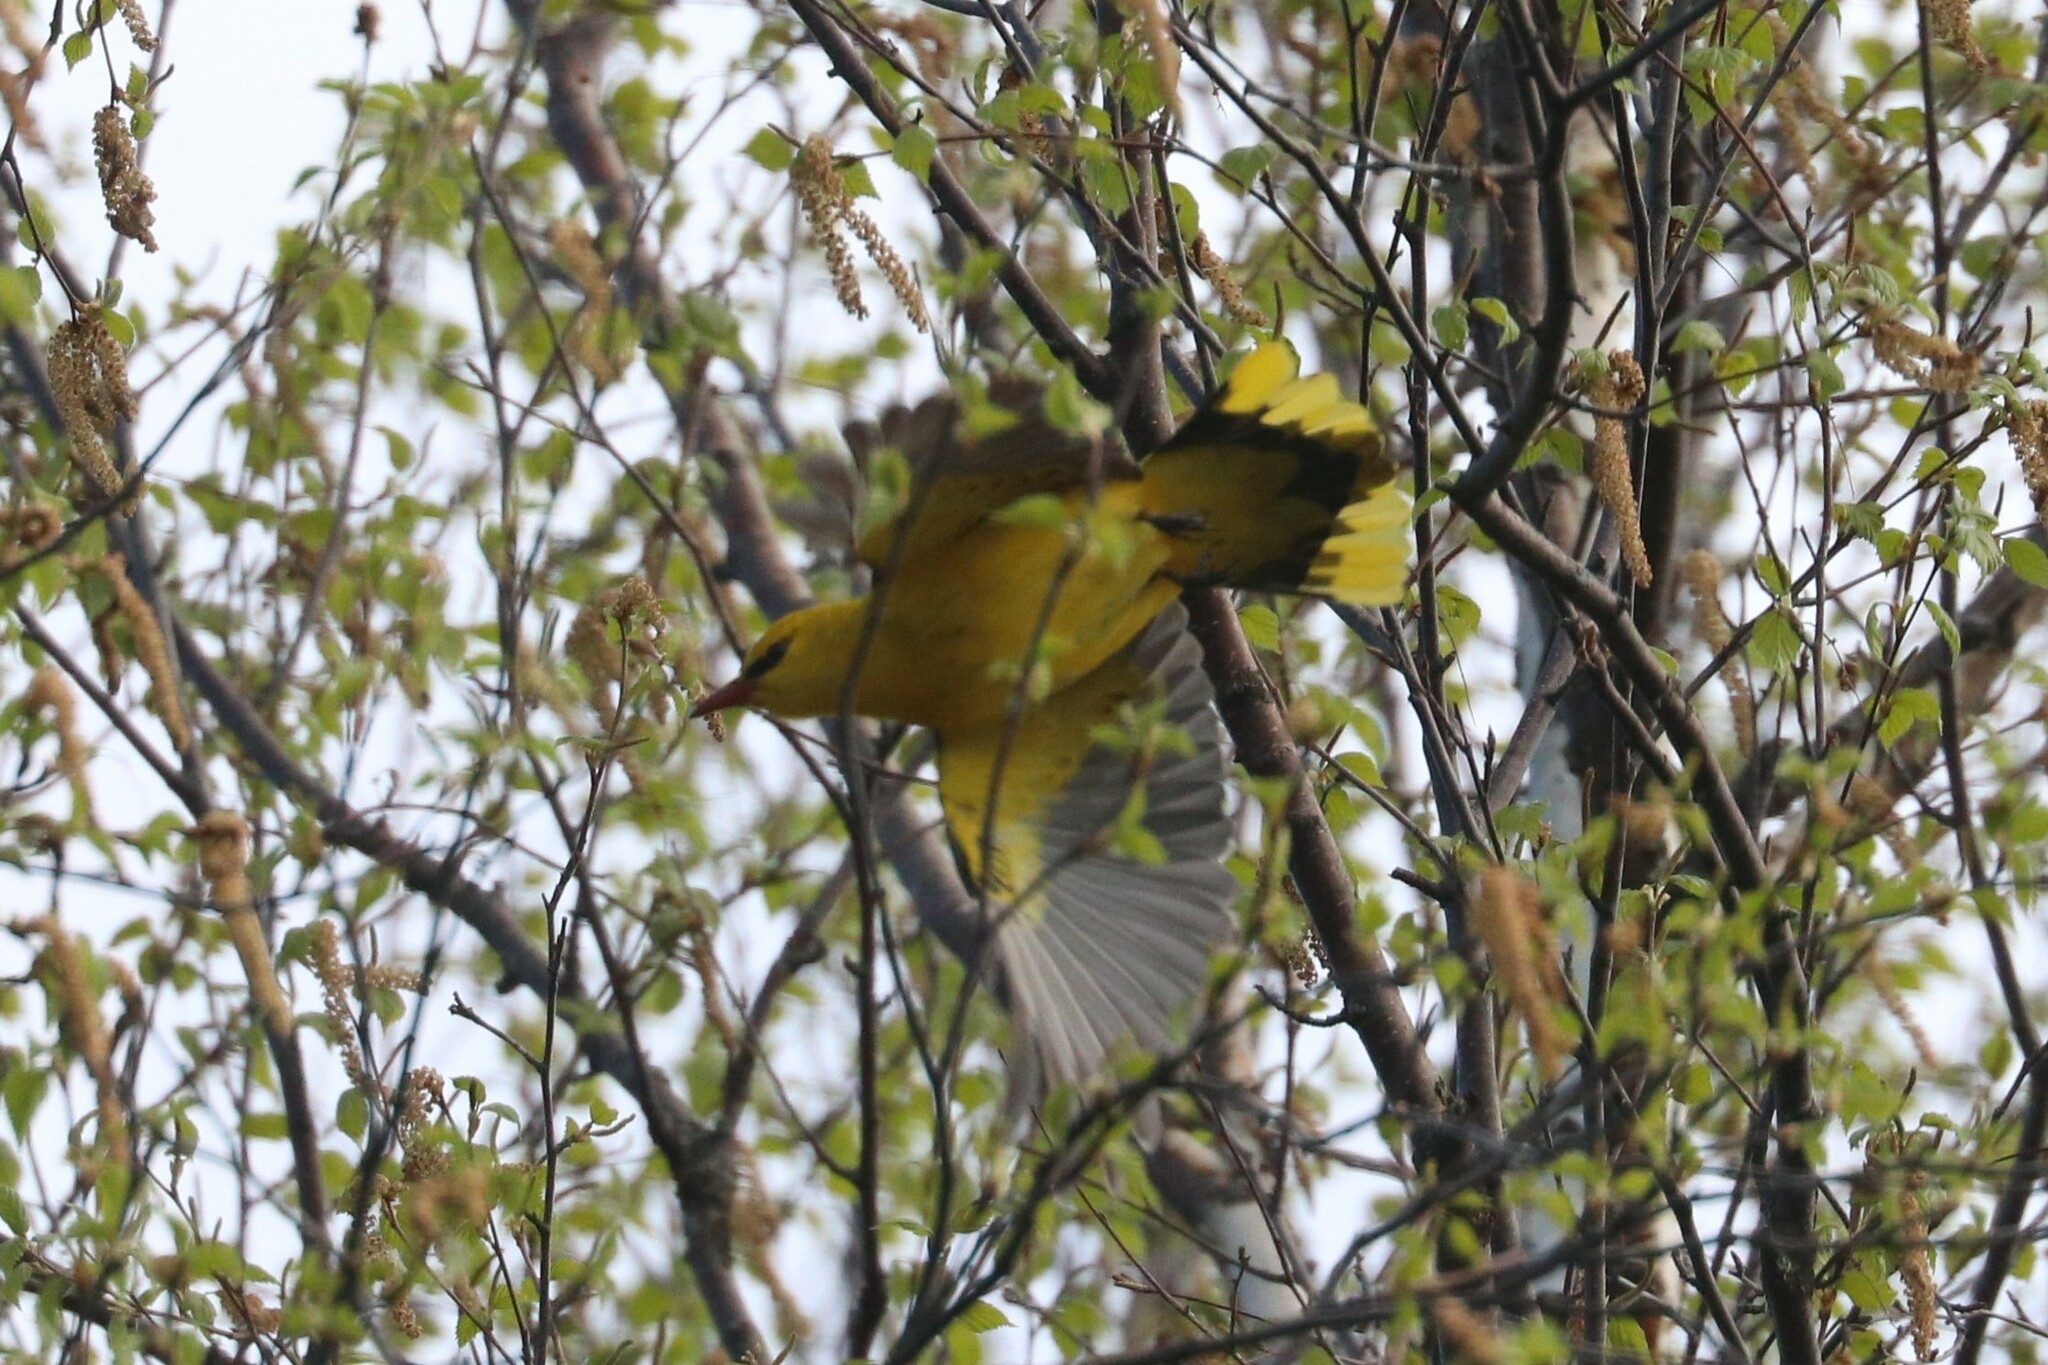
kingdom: Animalia
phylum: Chordata
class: Aves
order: Passeriformes
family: Oriolidae
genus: Oriolus
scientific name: Oriolus oriolus
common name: Eurasian golden oriole
